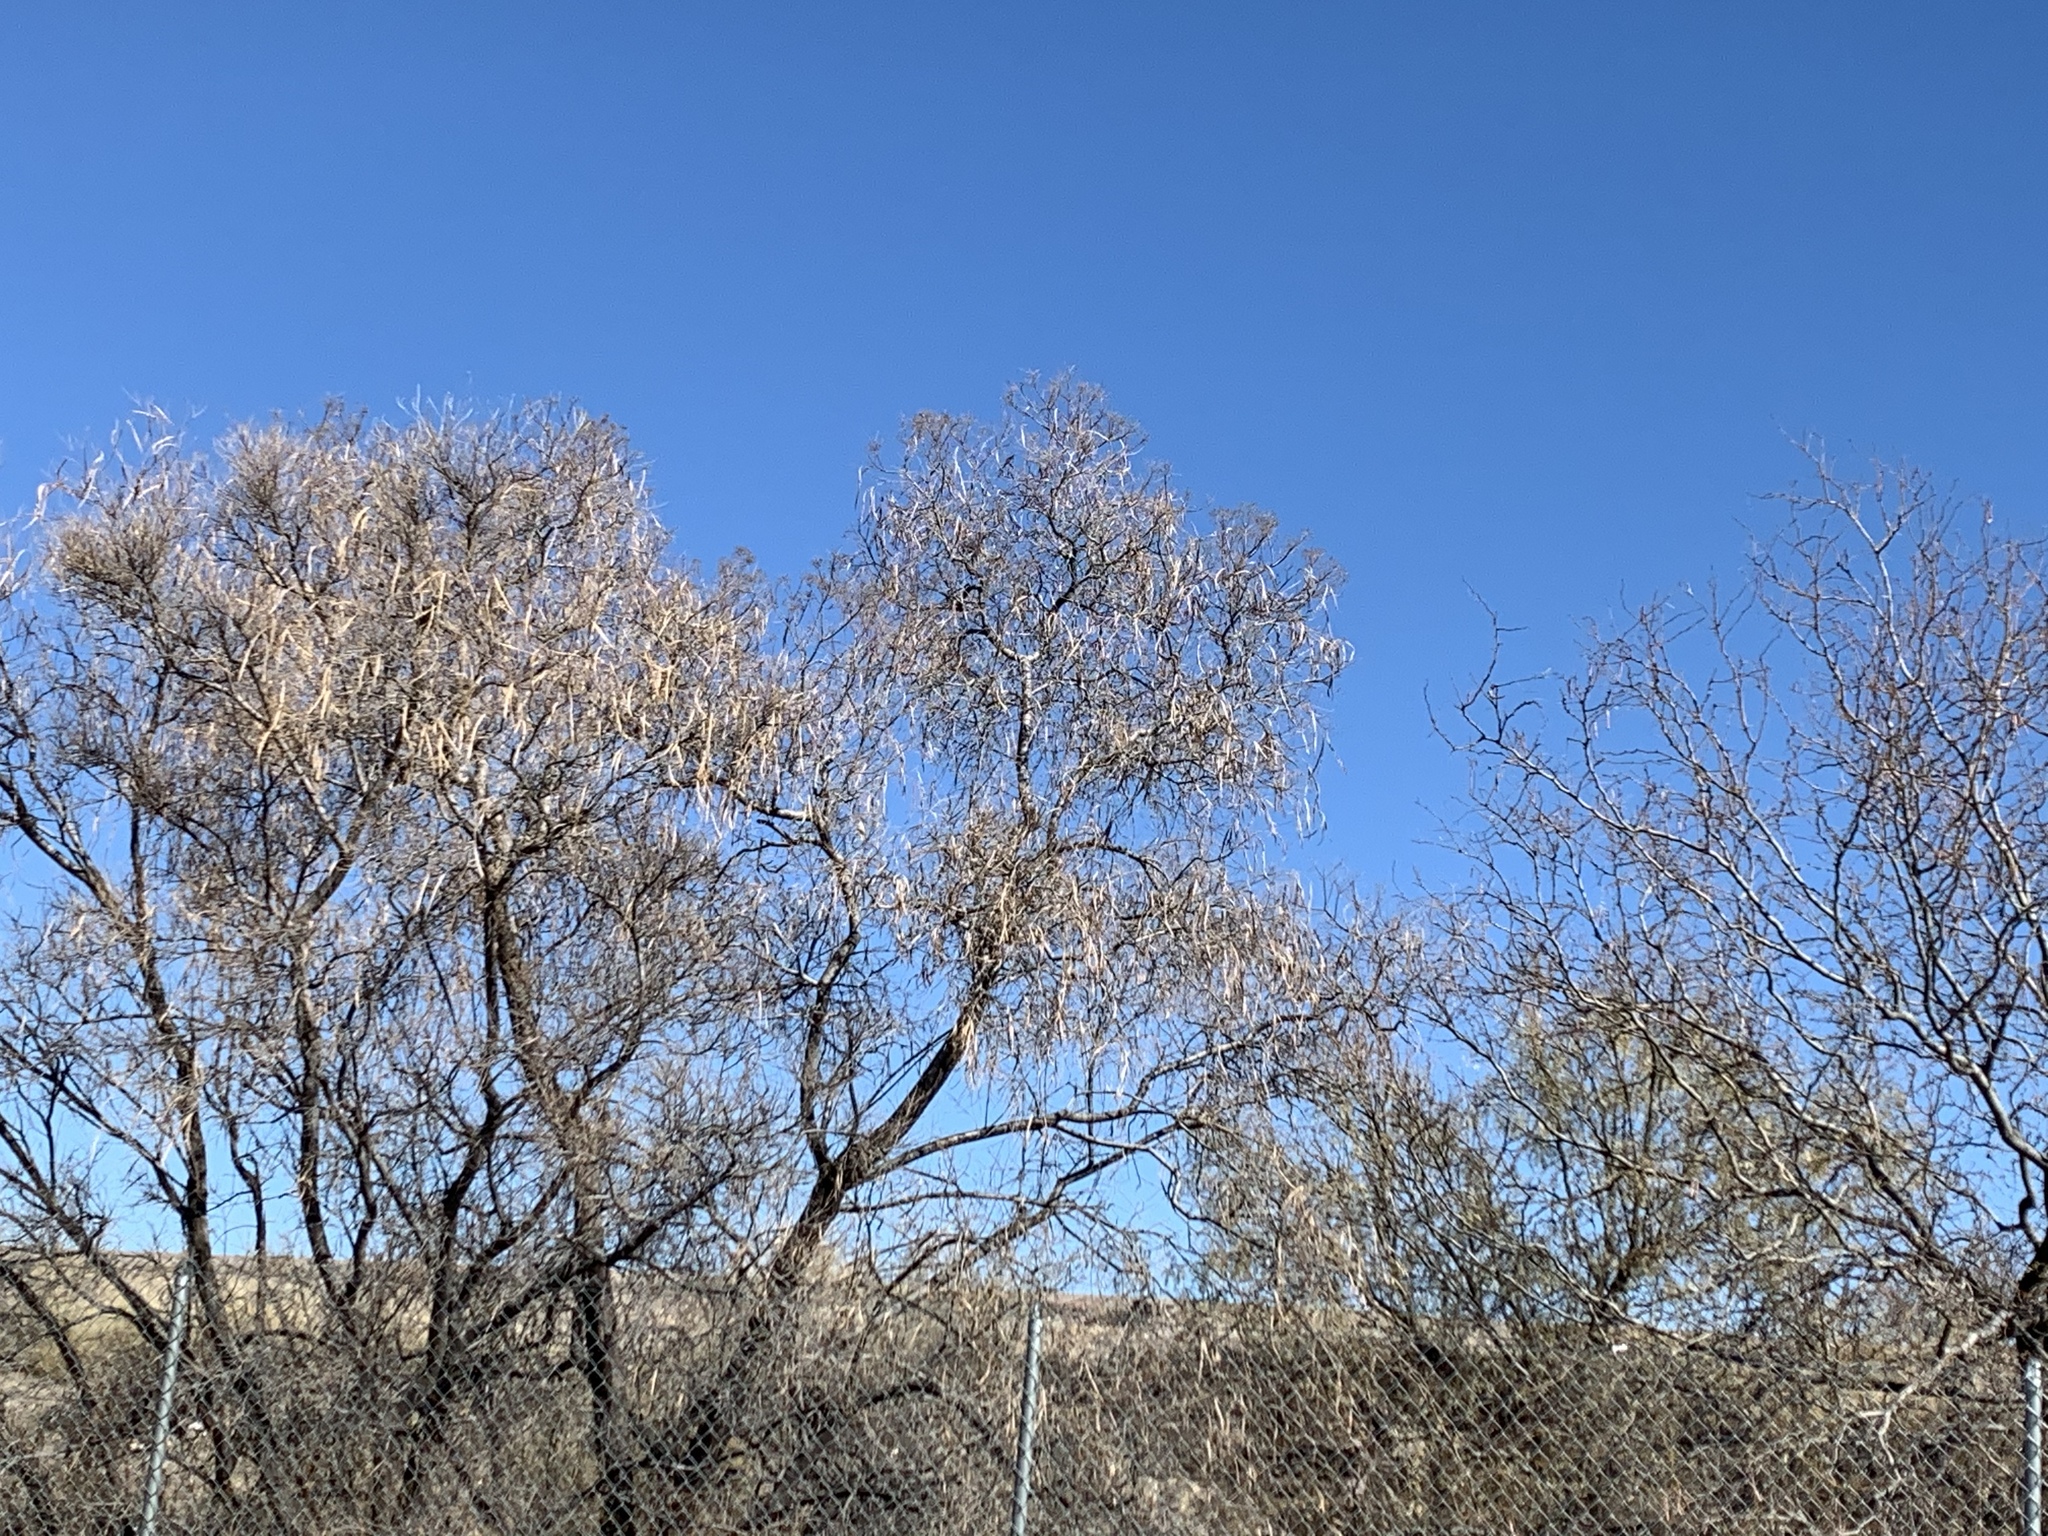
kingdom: Plantae
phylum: Tracheophyta
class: Magnoliopsida
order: Lamiales
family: Bignoniaceae
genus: Chilopsis
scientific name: Chilopsis linearis
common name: Desert-willow
